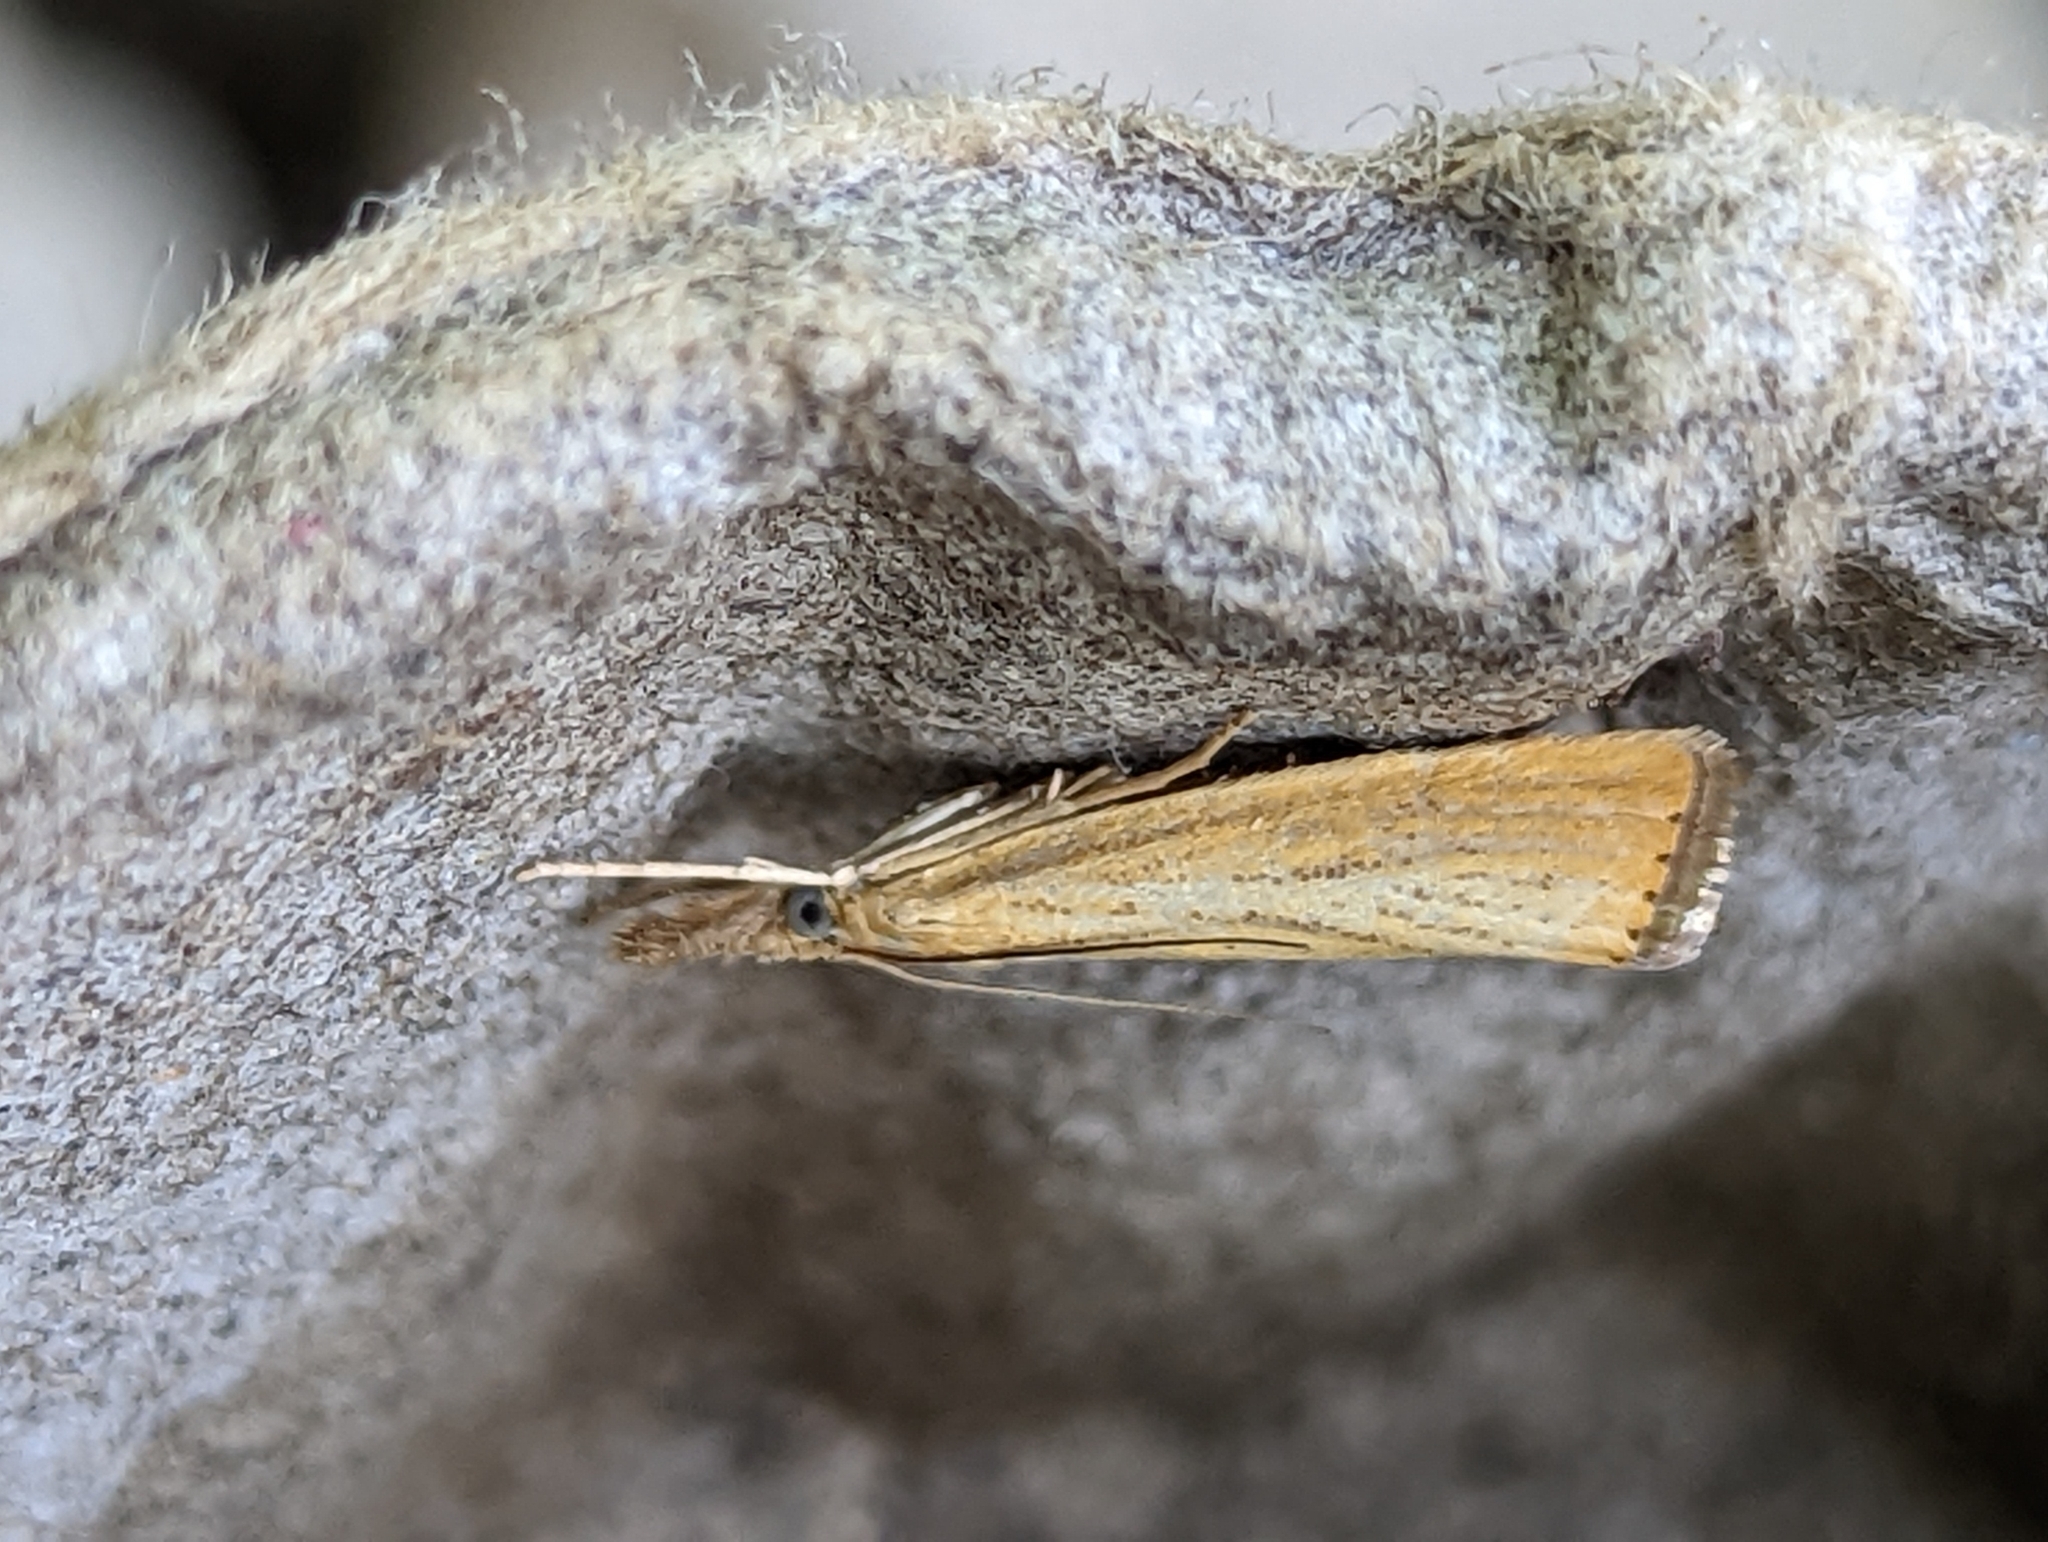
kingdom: Animalia
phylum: Arthropoda
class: Insecta
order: Lepidoptera
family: Crambidae
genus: Agriphila
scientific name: Agriphila straminella
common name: Straw grass-veneer
